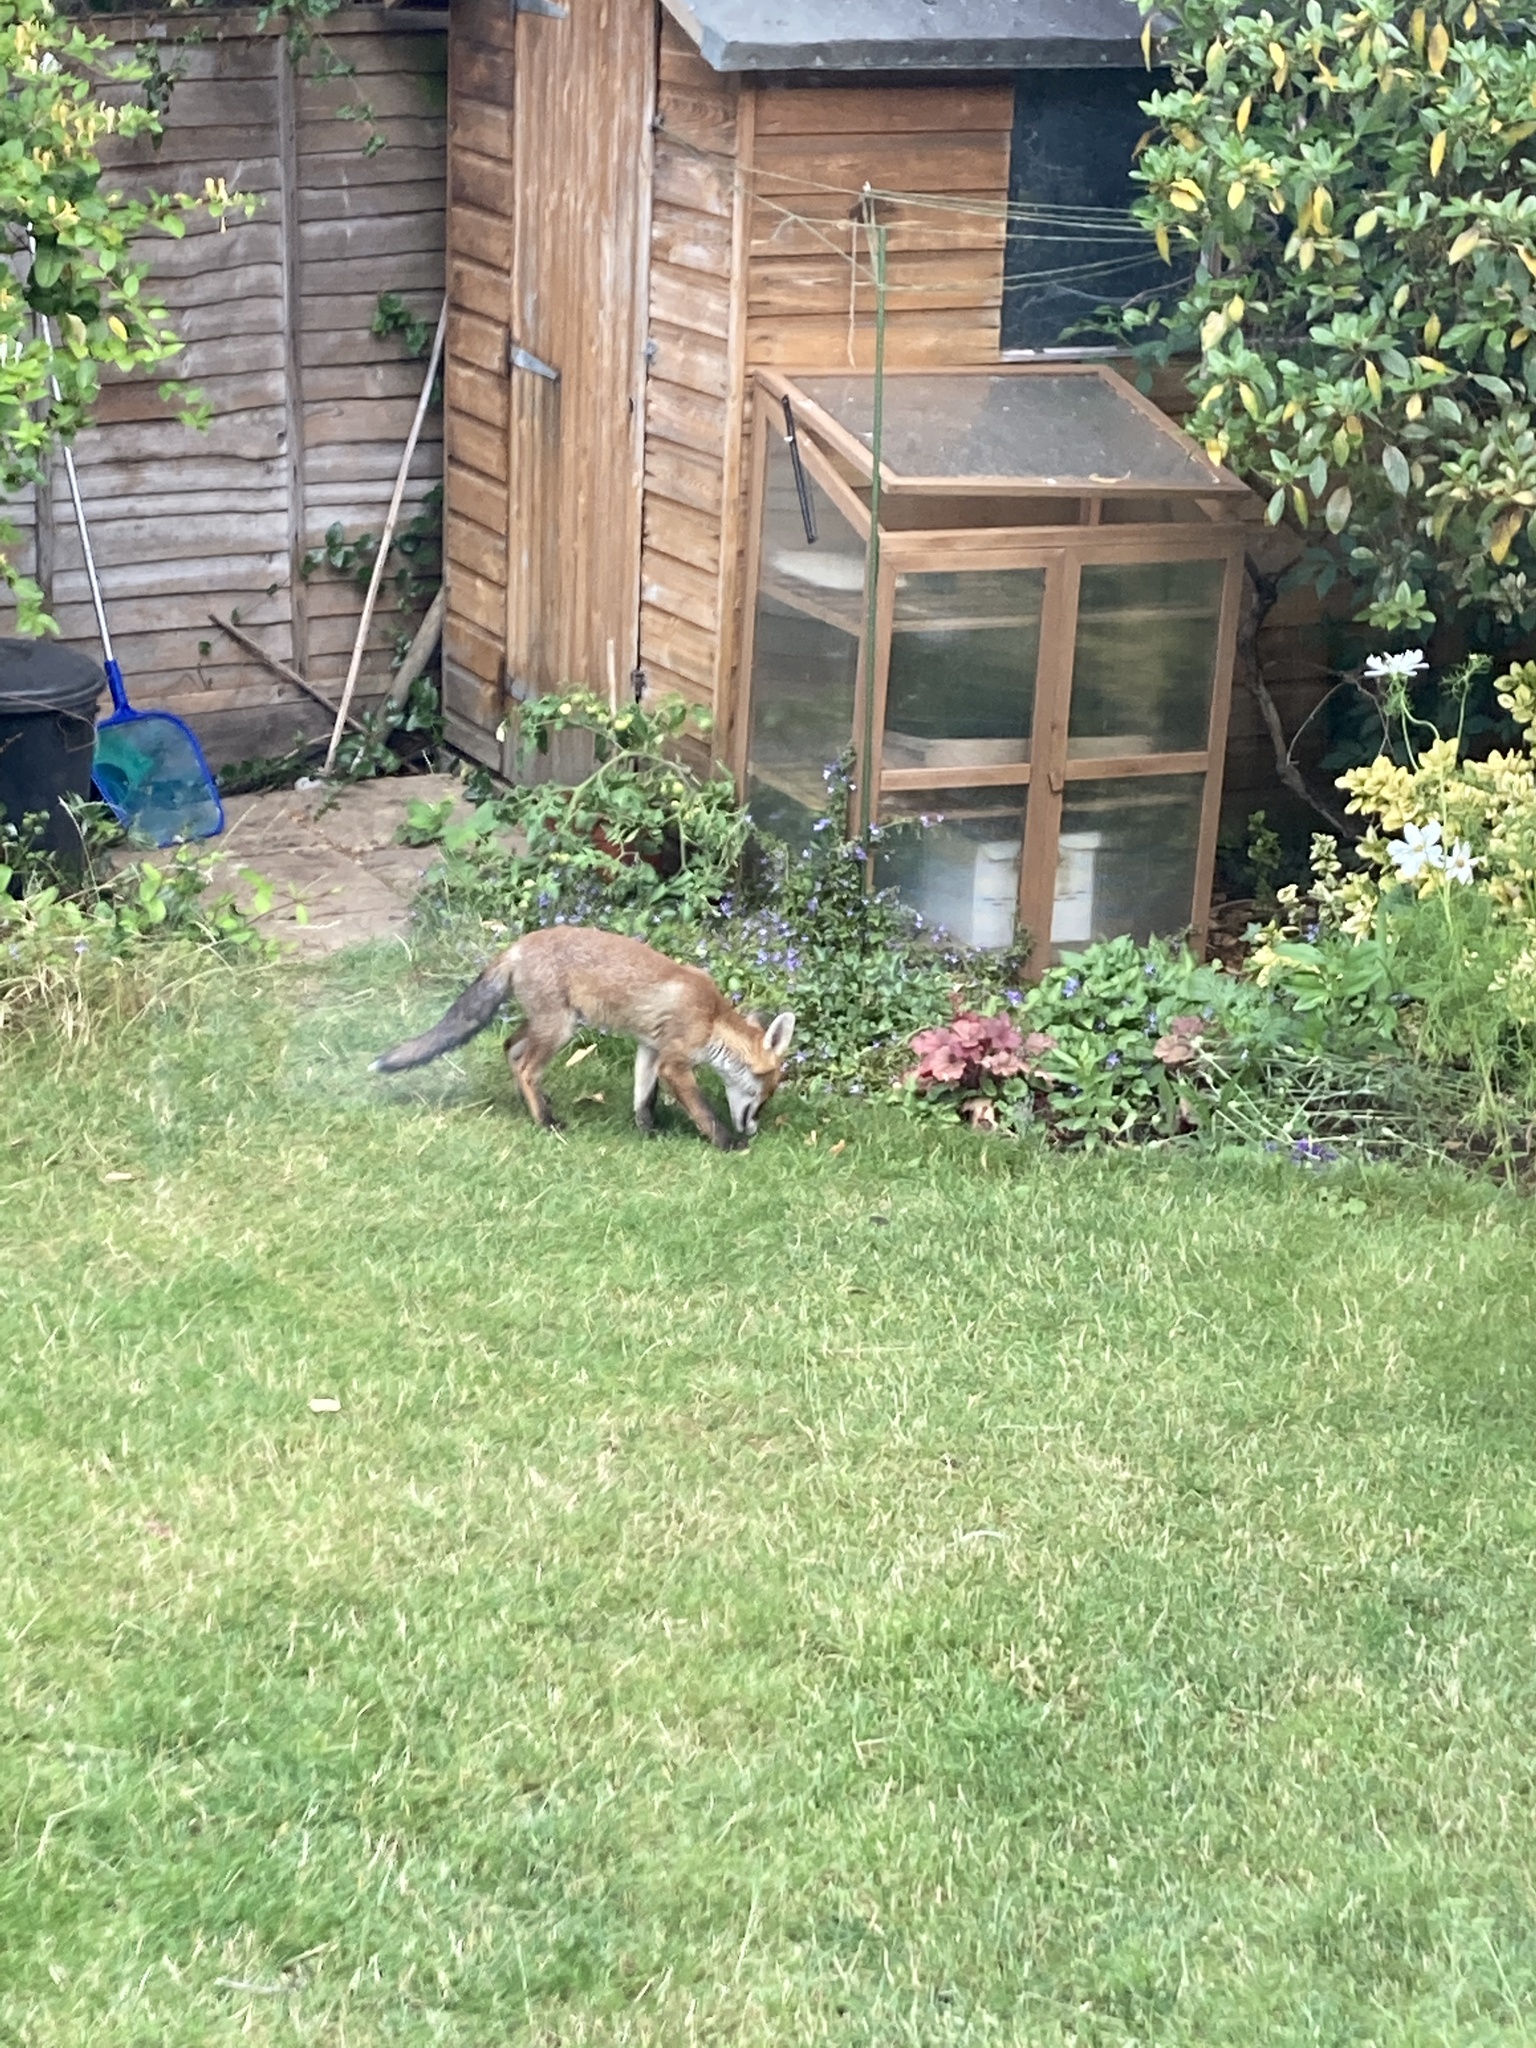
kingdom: Animalia
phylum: Chordata
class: Mammalia
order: Carnivora
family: Canidae
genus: Vulpes
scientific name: Vulpes vulpes
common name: Red fox
